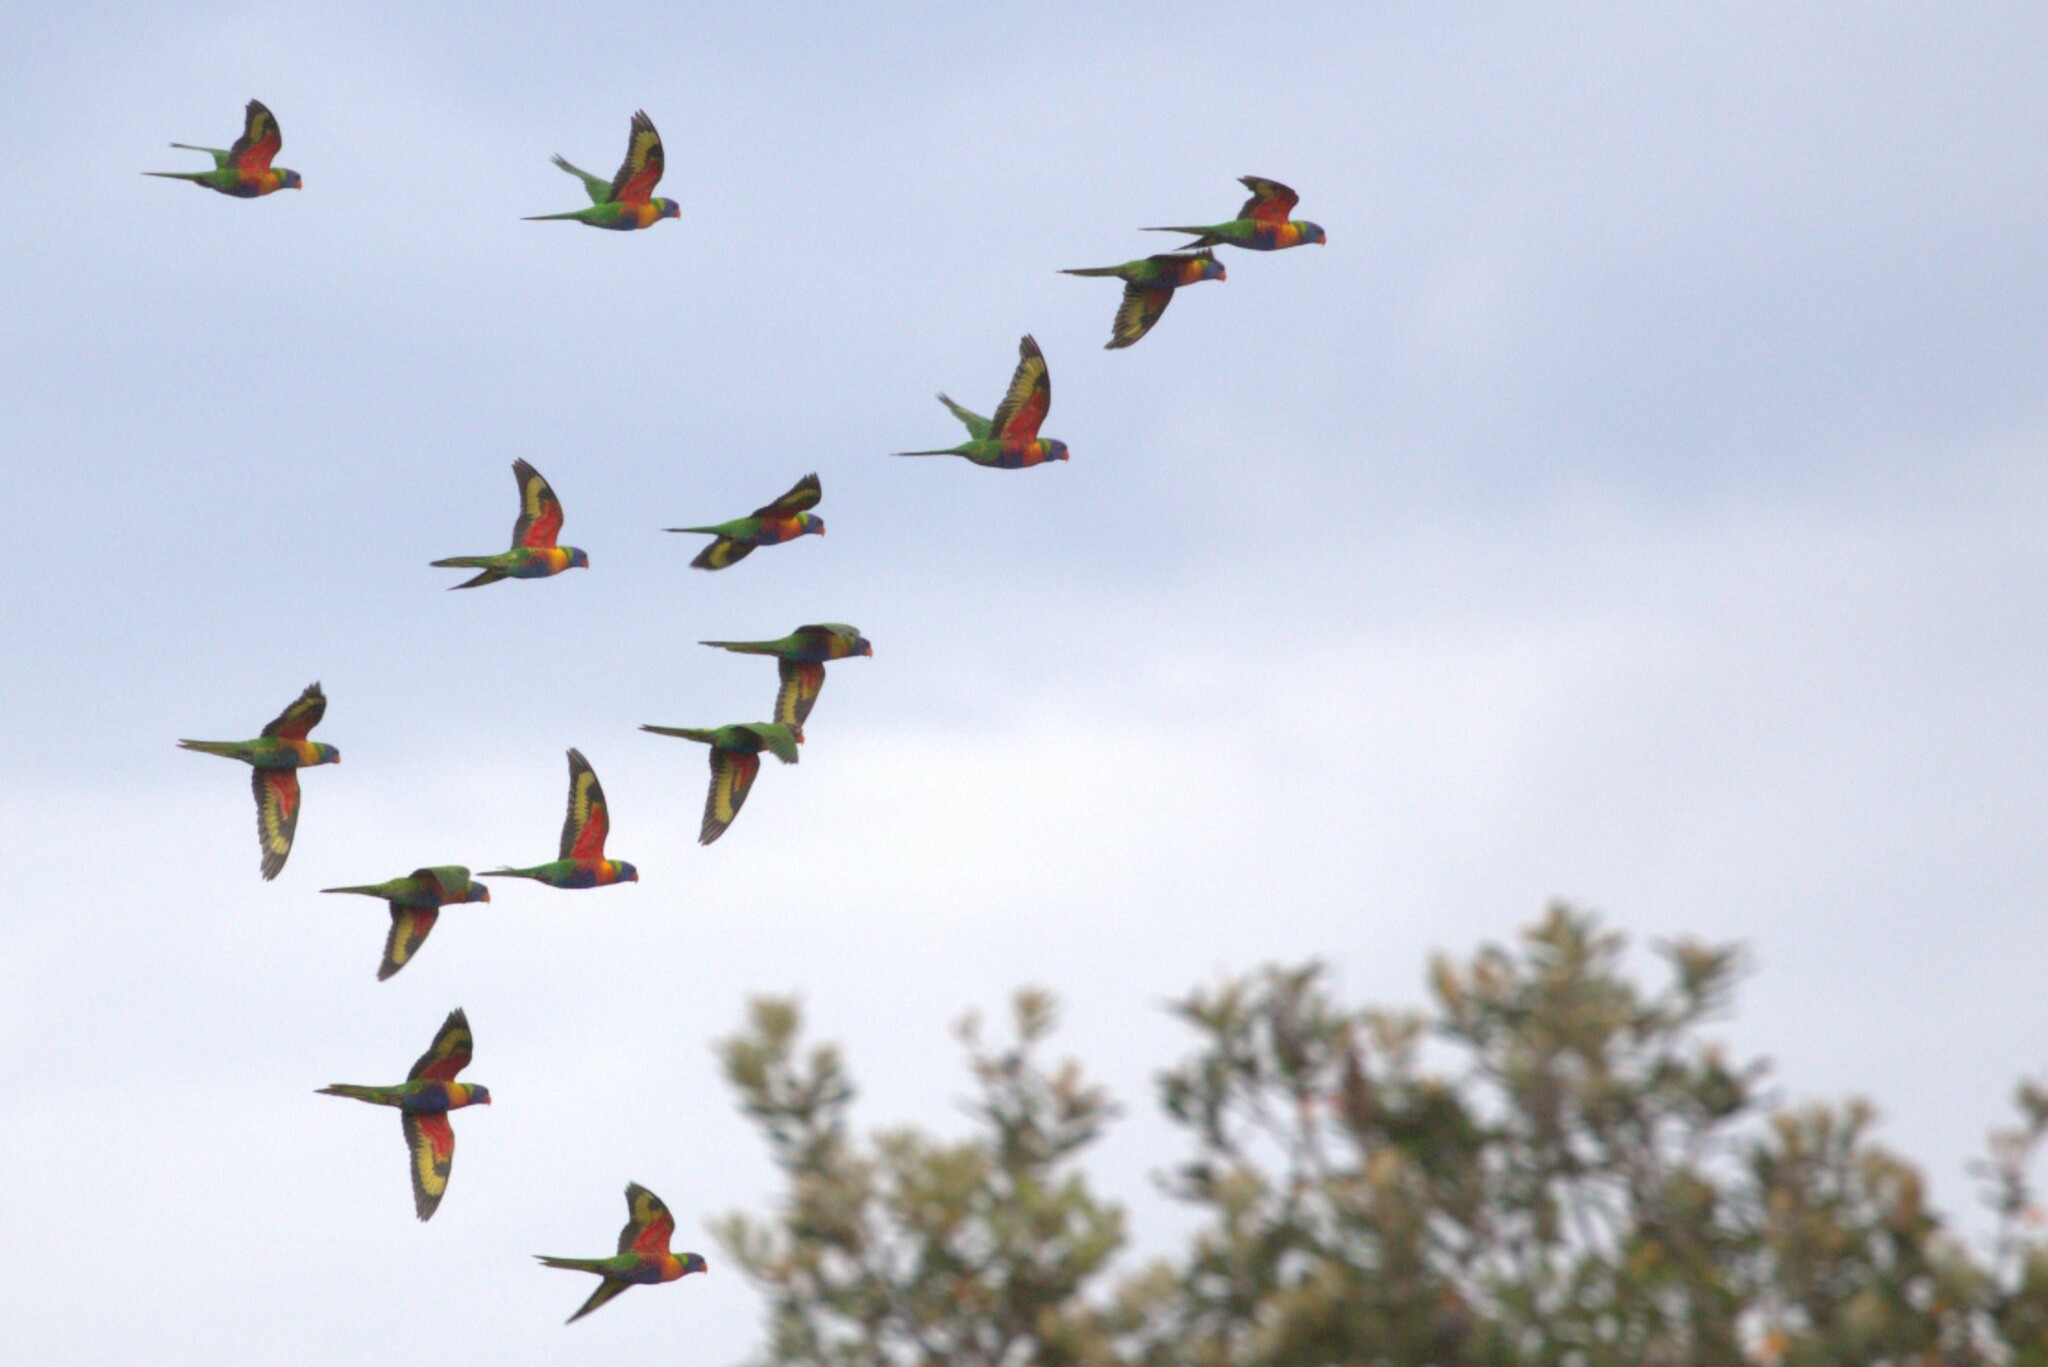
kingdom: Animalia
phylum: Chordata
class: Aves
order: Psittaciformes
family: Psittacidae
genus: Trichoglossus
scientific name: Trichoglossus haematodus
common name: Coconut lorikeet
